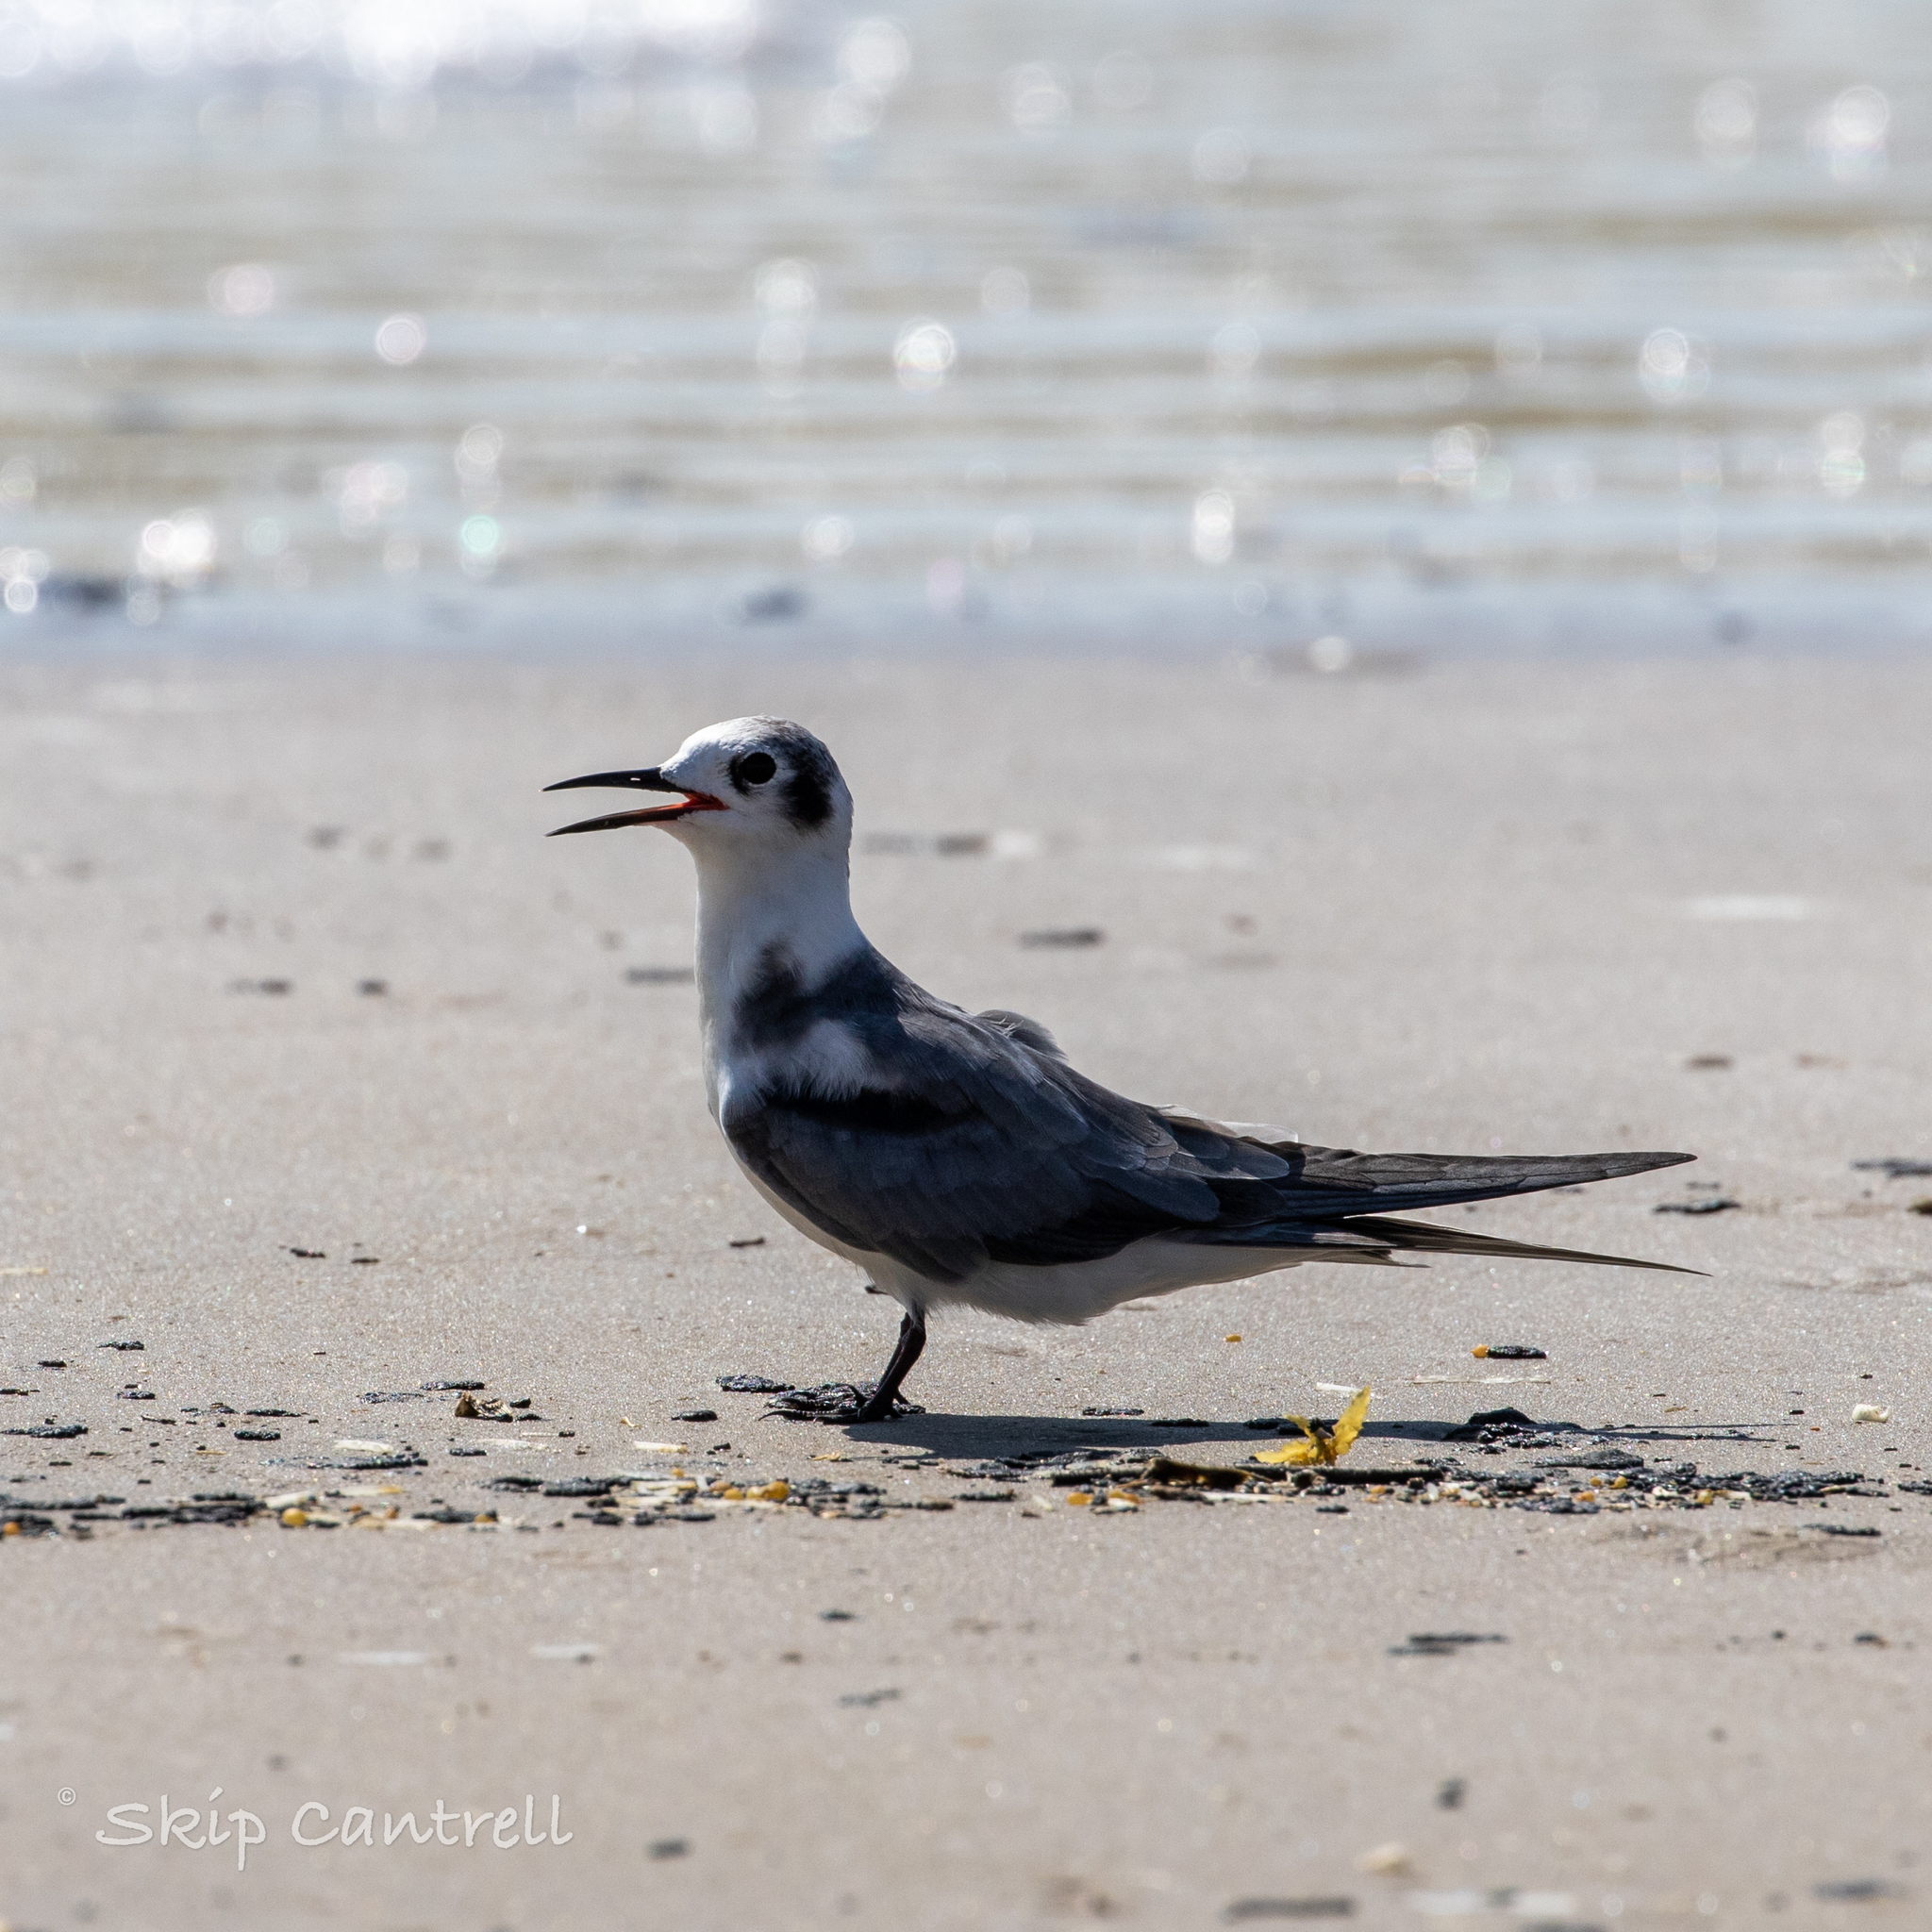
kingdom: Animalia
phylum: Chordata
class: Aves
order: Charadriiformes
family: Laridae
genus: Chlidonias
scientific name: Chlidonias niger
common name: Black tern
